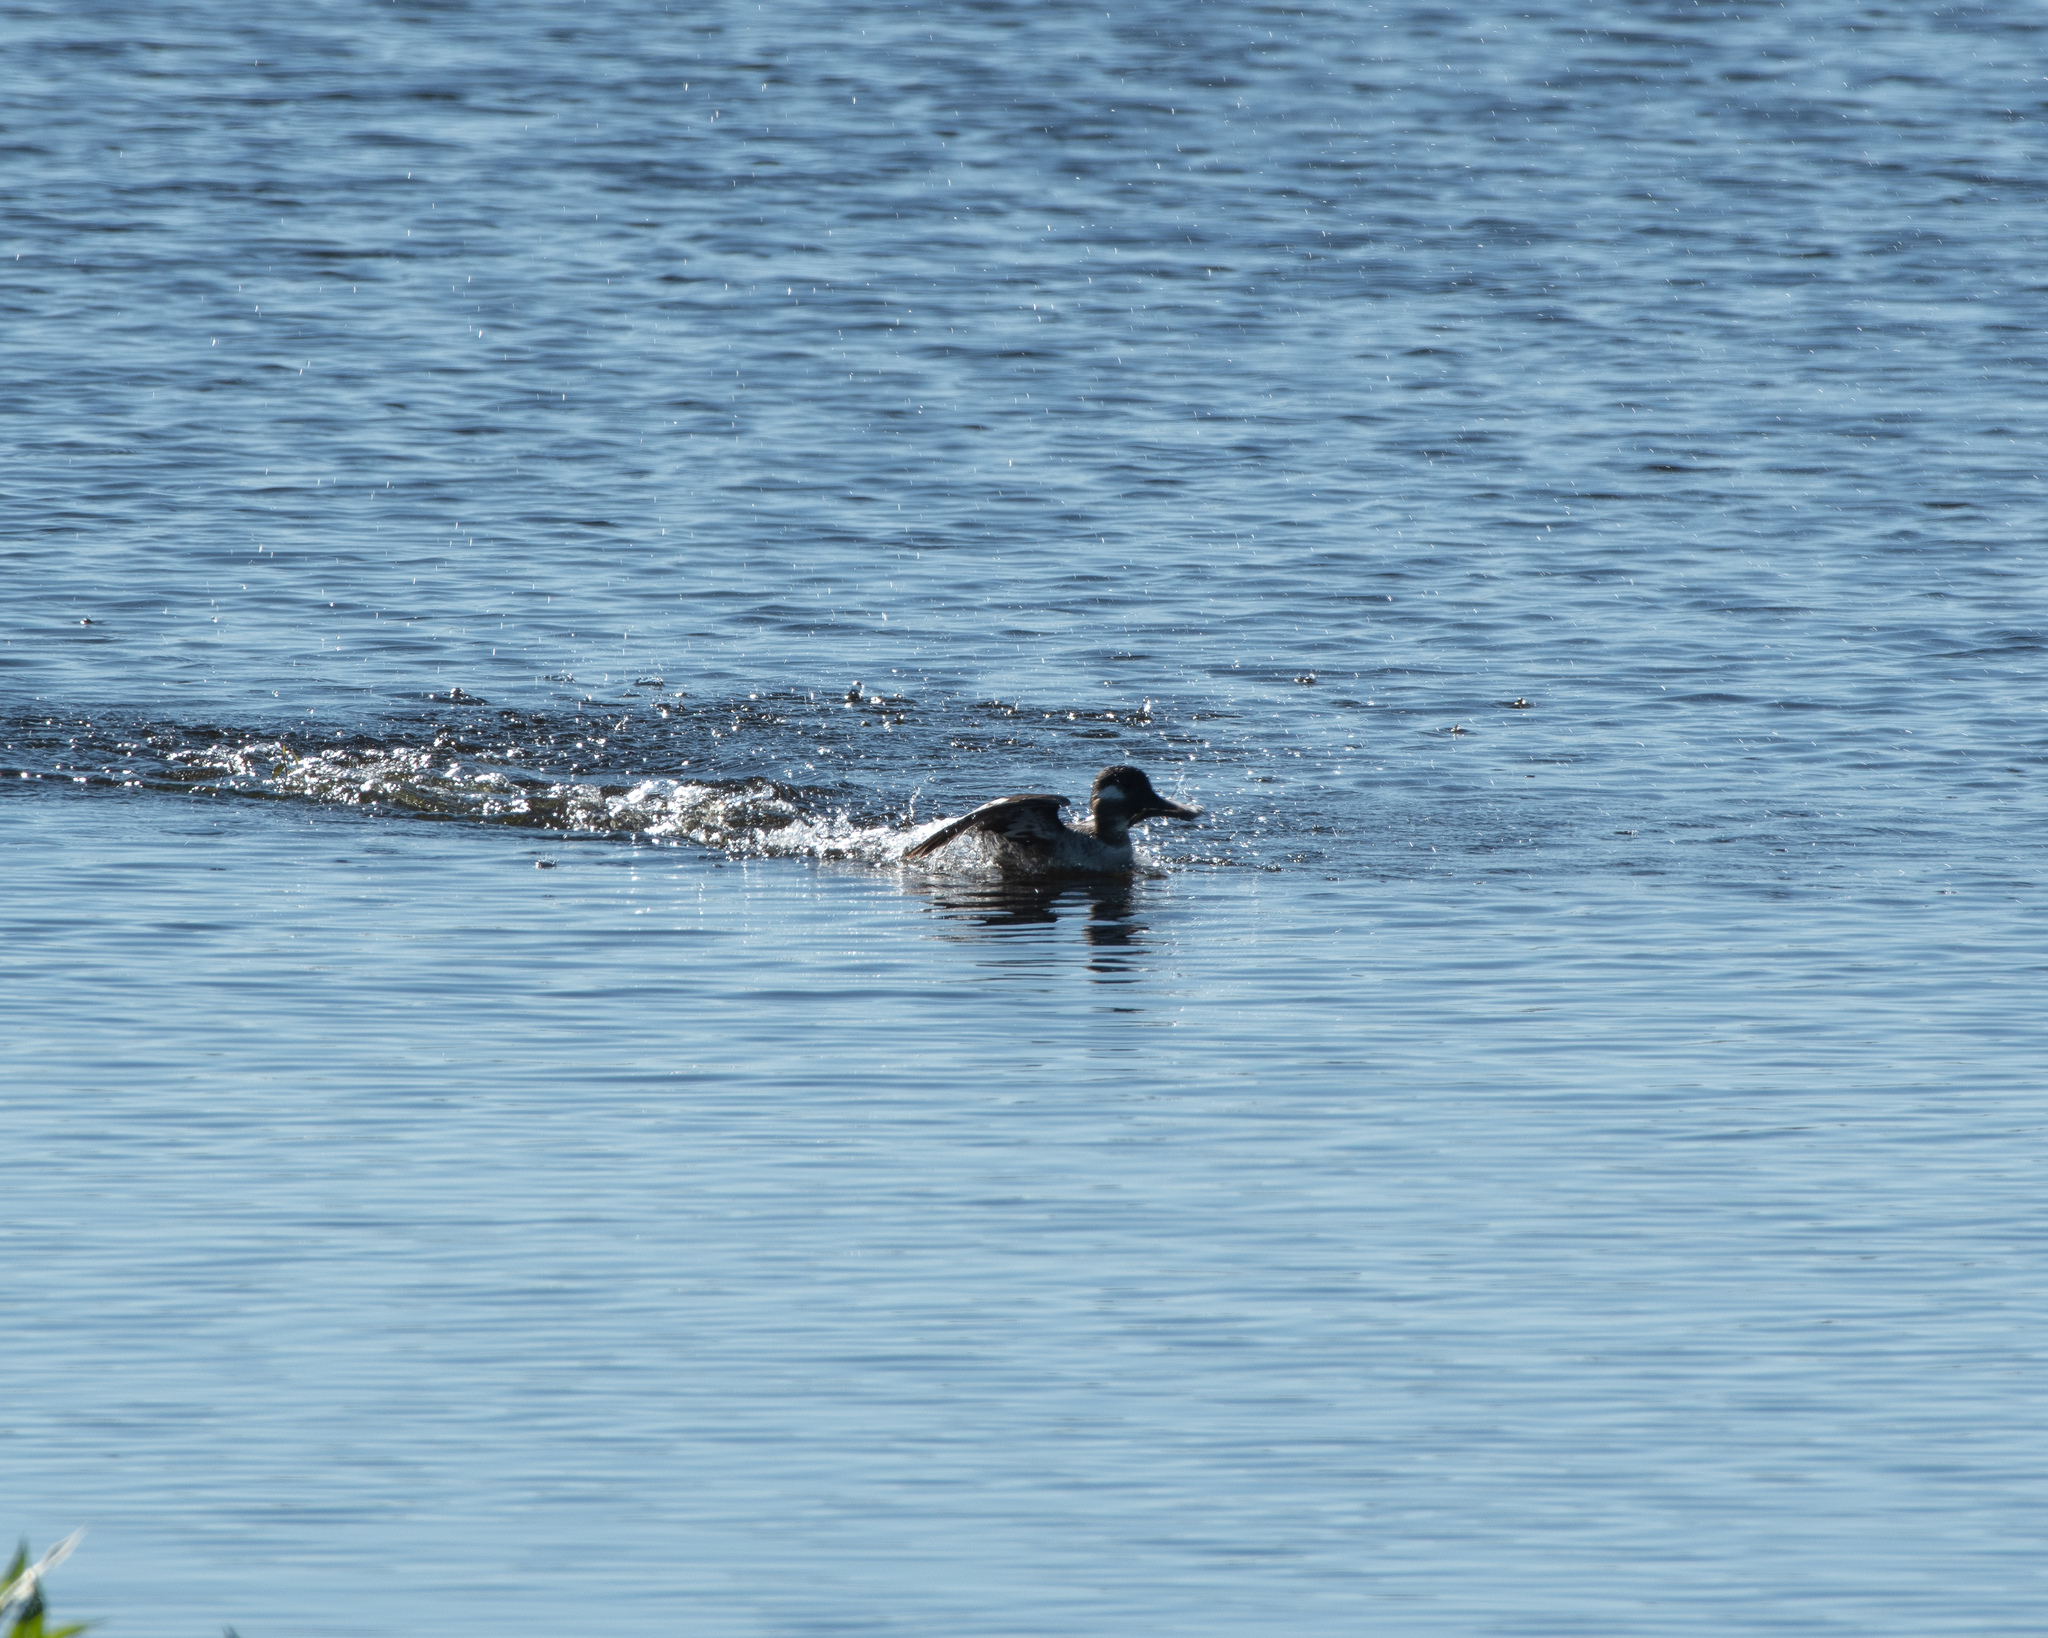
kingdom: Animalia
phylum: Chordata
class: Aves
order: Anseriformes
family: Anatidae
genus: Bucephala
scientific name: Bucephala albeola
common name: Bufflehead
